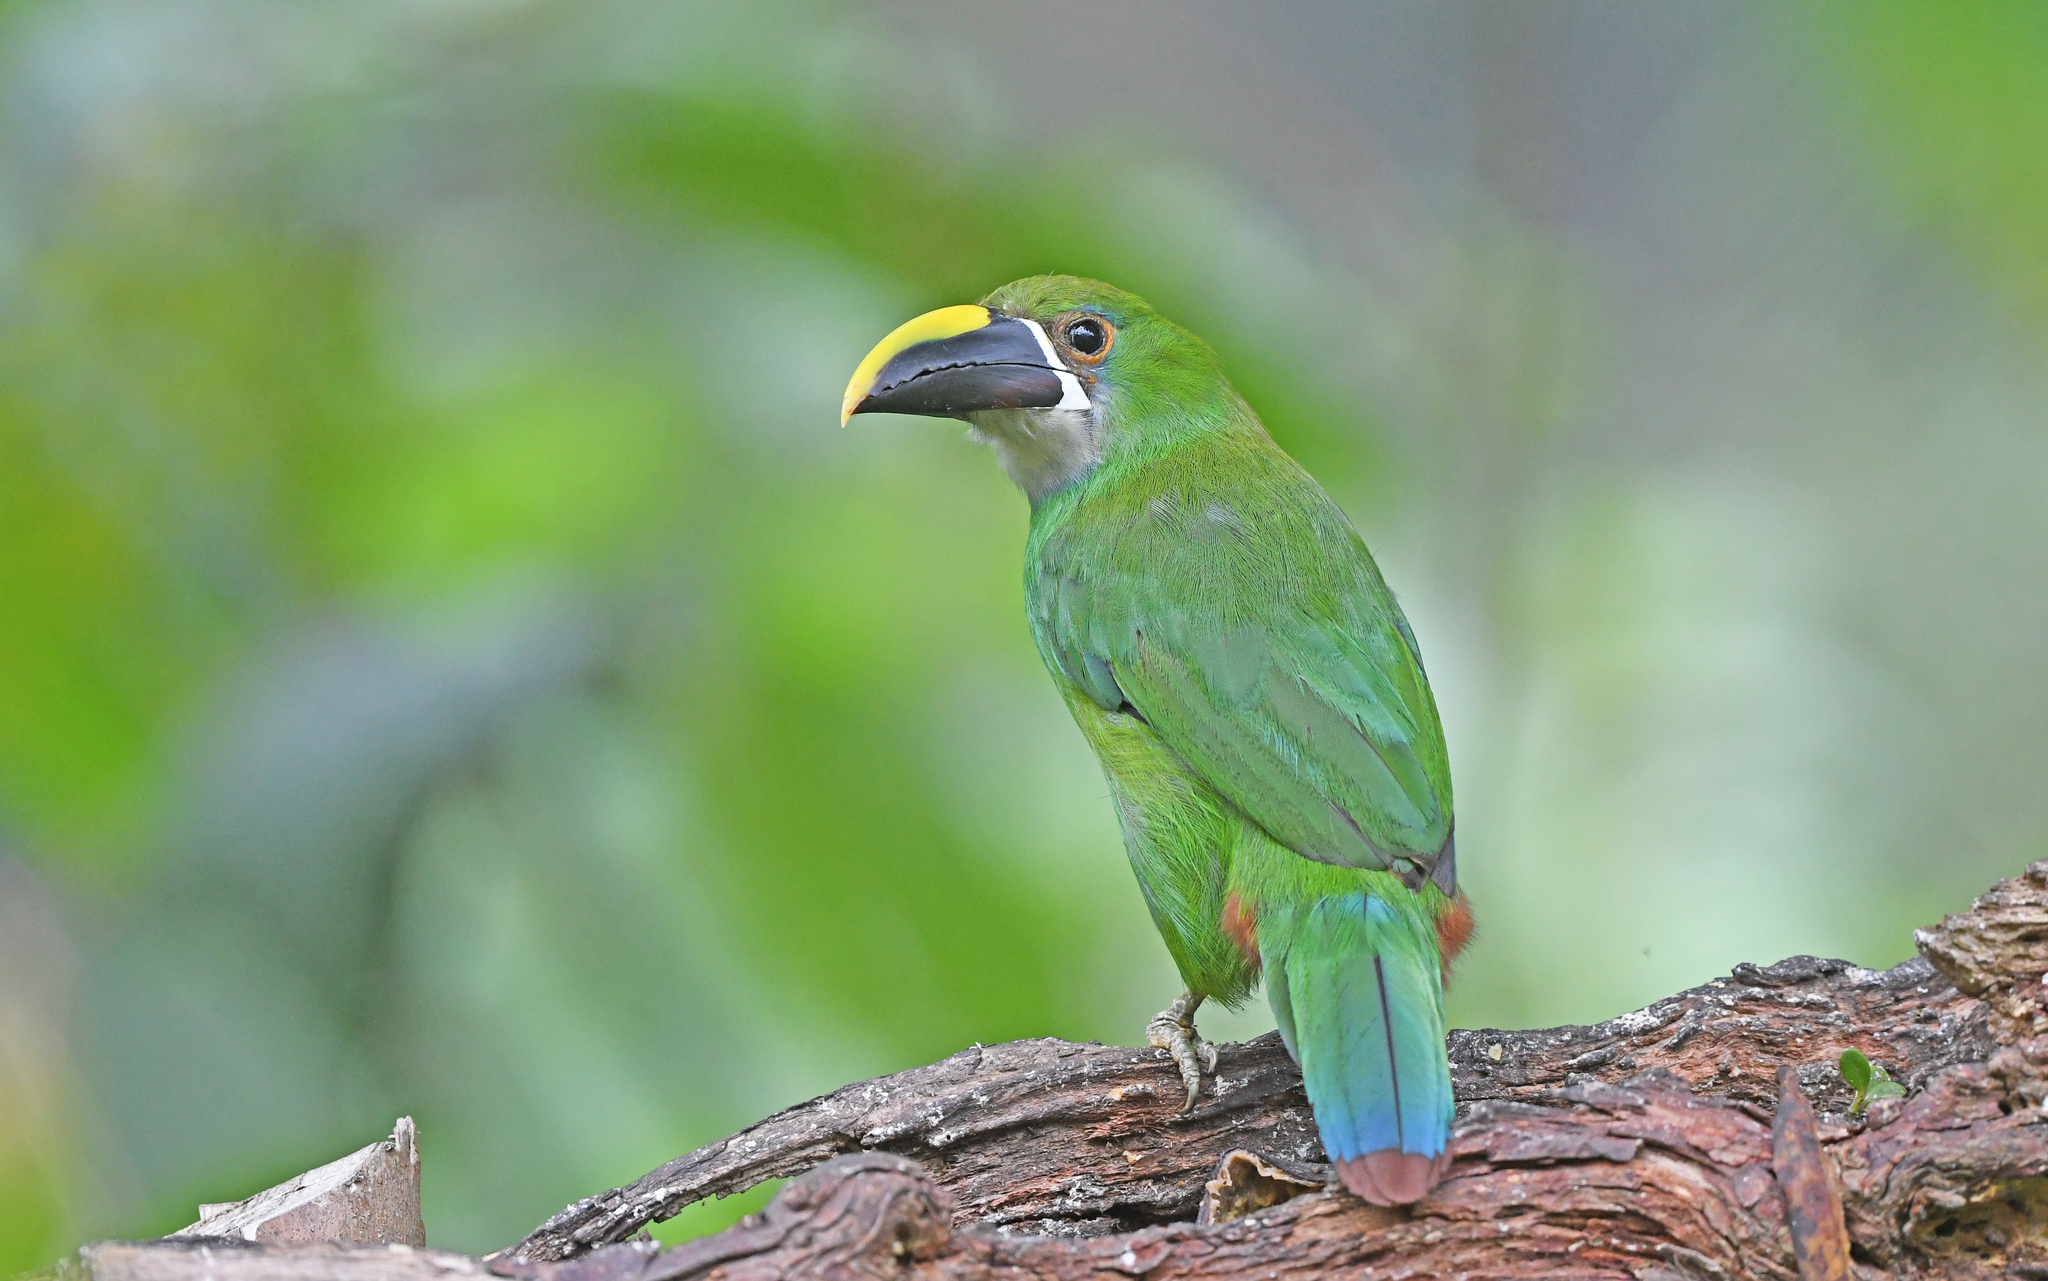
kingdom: Animalia
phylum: Chordata
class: Aves
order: Piciformes
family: Ramphastidae
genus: Aulacorhynchus
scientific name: Aulacorhynchus albivitta
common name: White-throated toucanet
